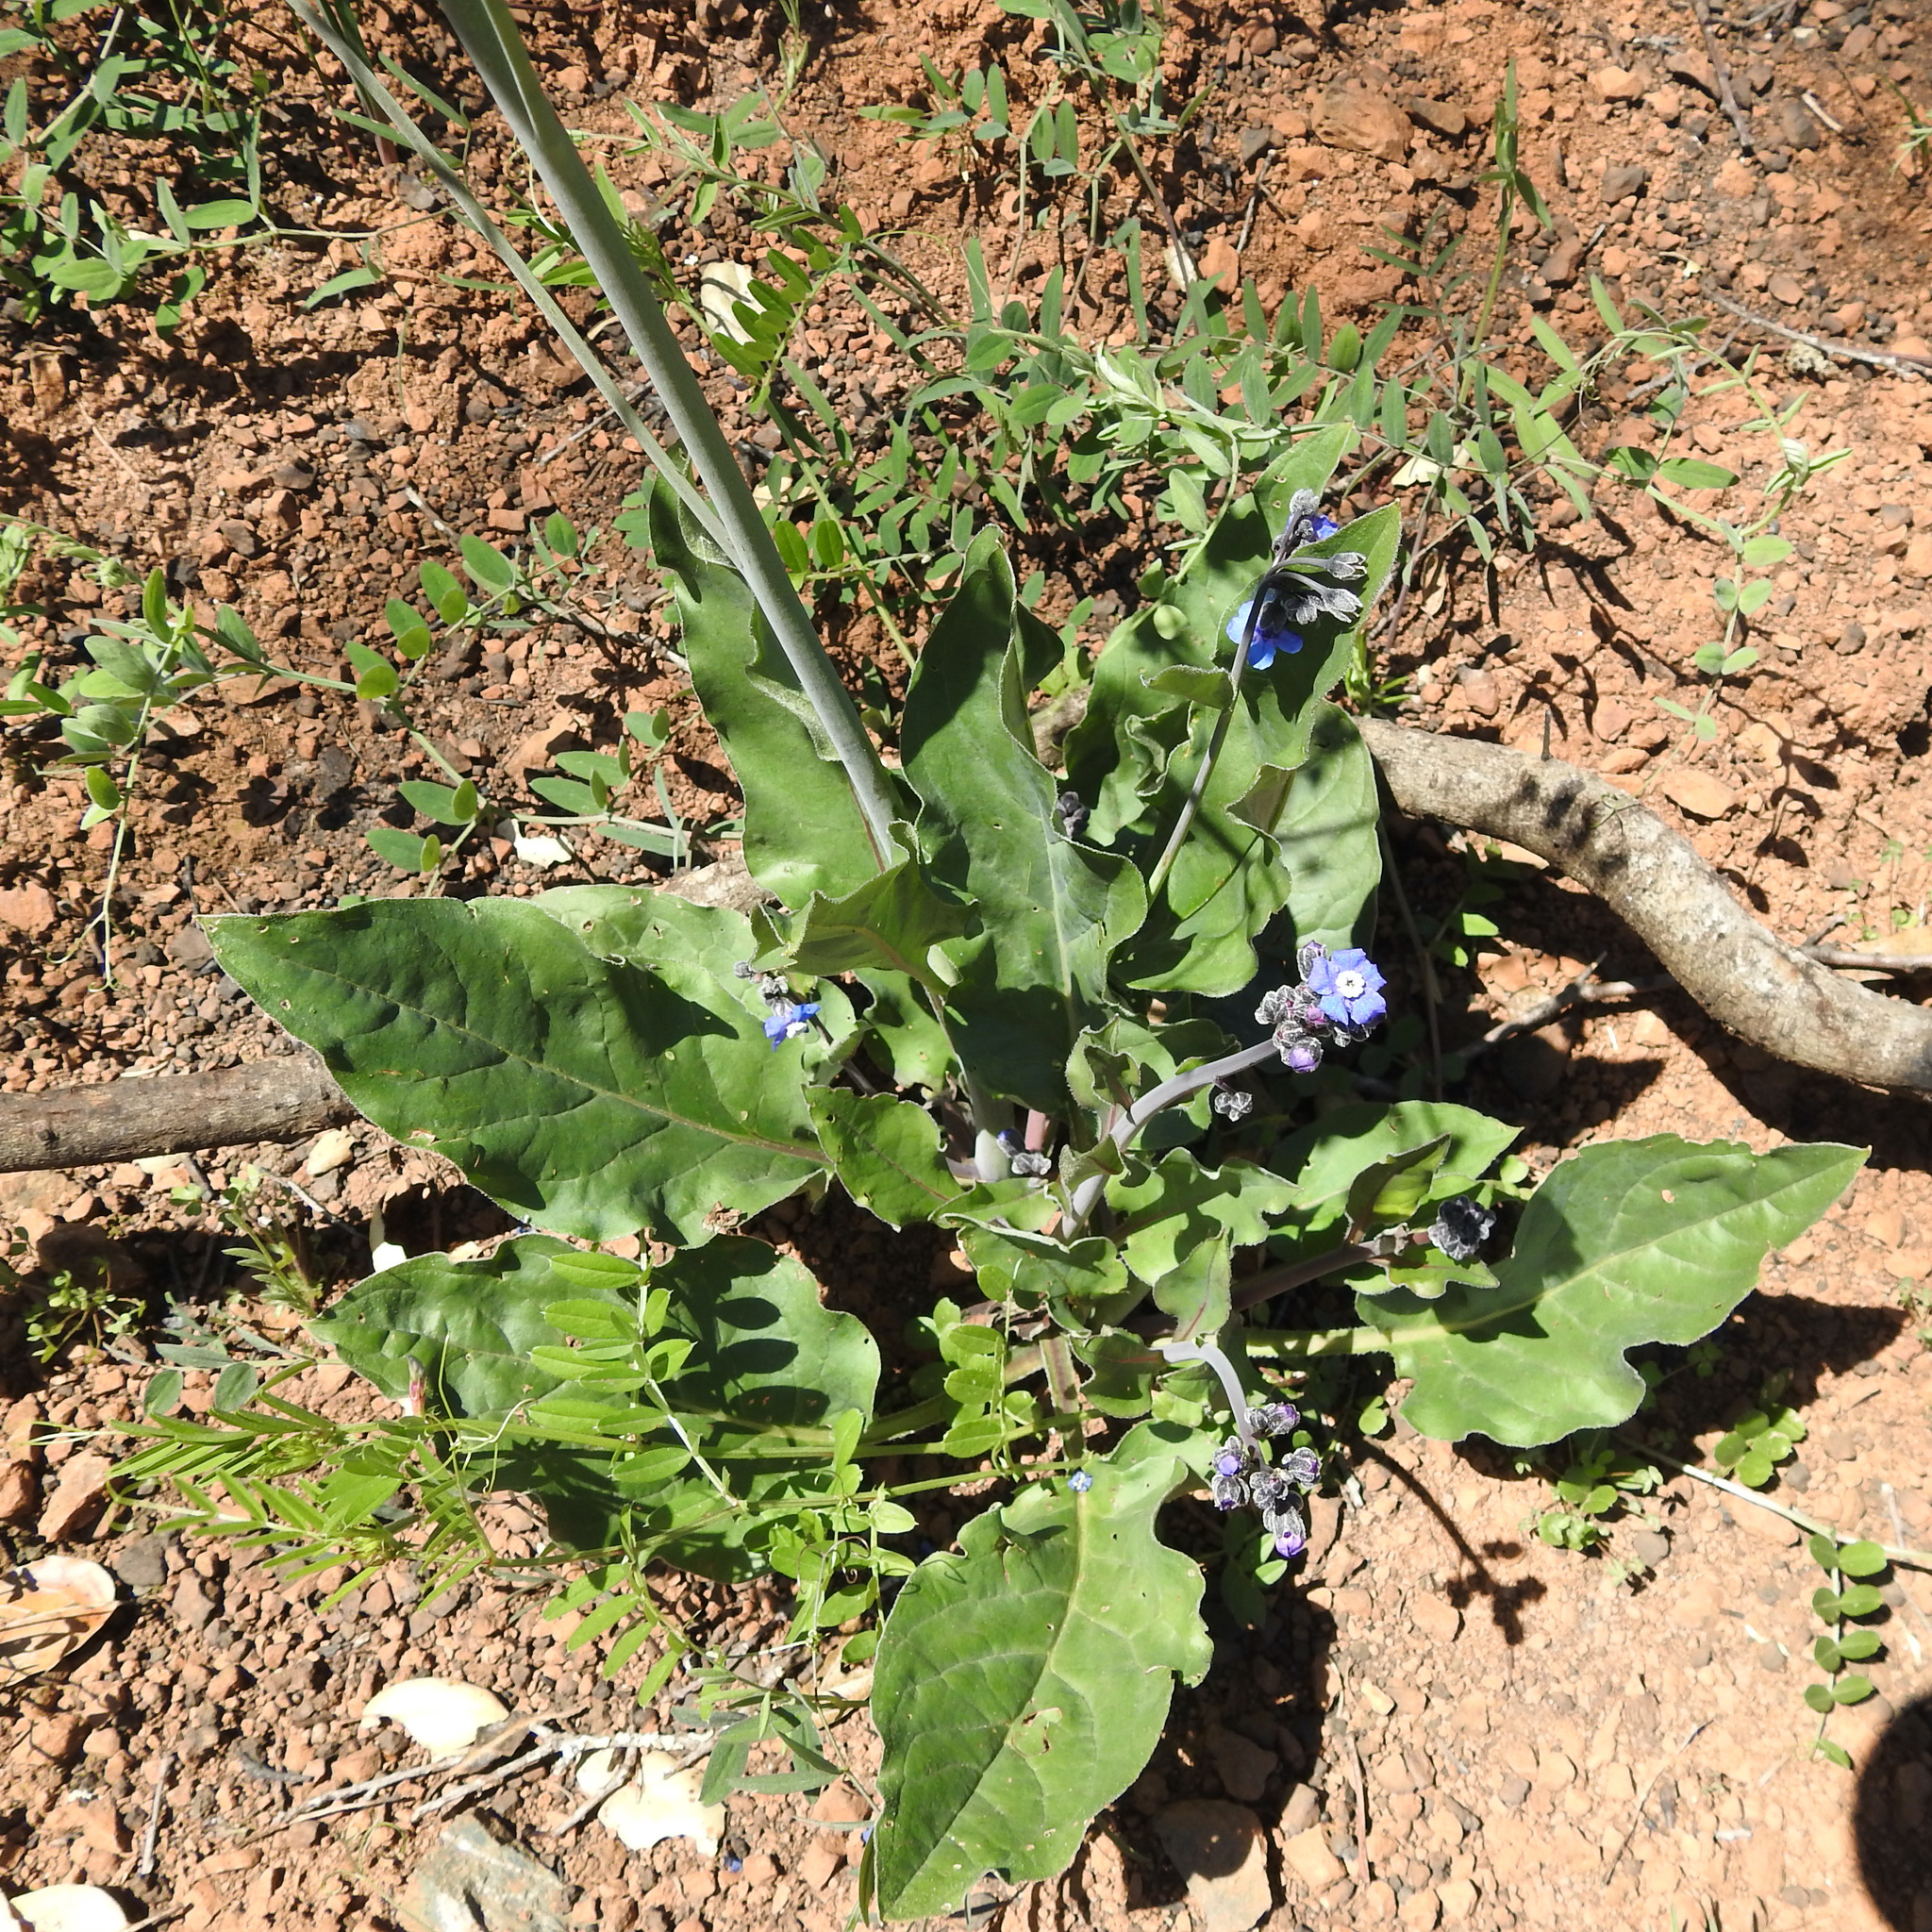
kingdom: Plantae
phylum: Tracheophyta
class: Magnoliopsida
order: Boraginales
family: Boraginaceae
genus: Adelinia
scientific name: Adelinia grande
